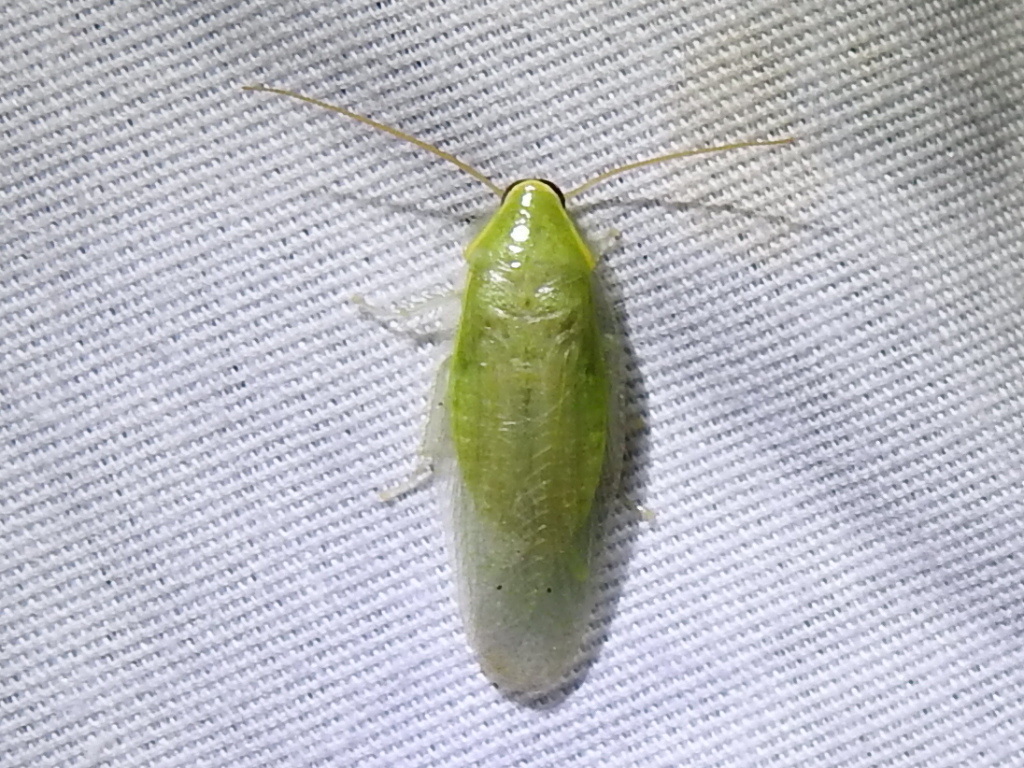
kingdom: Animalia
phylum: Arthropoda
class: Insecta
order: Blattodea
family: Blaberidae
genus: Panchlora
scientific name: Panchlora nivea
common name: Cuban cockroach
